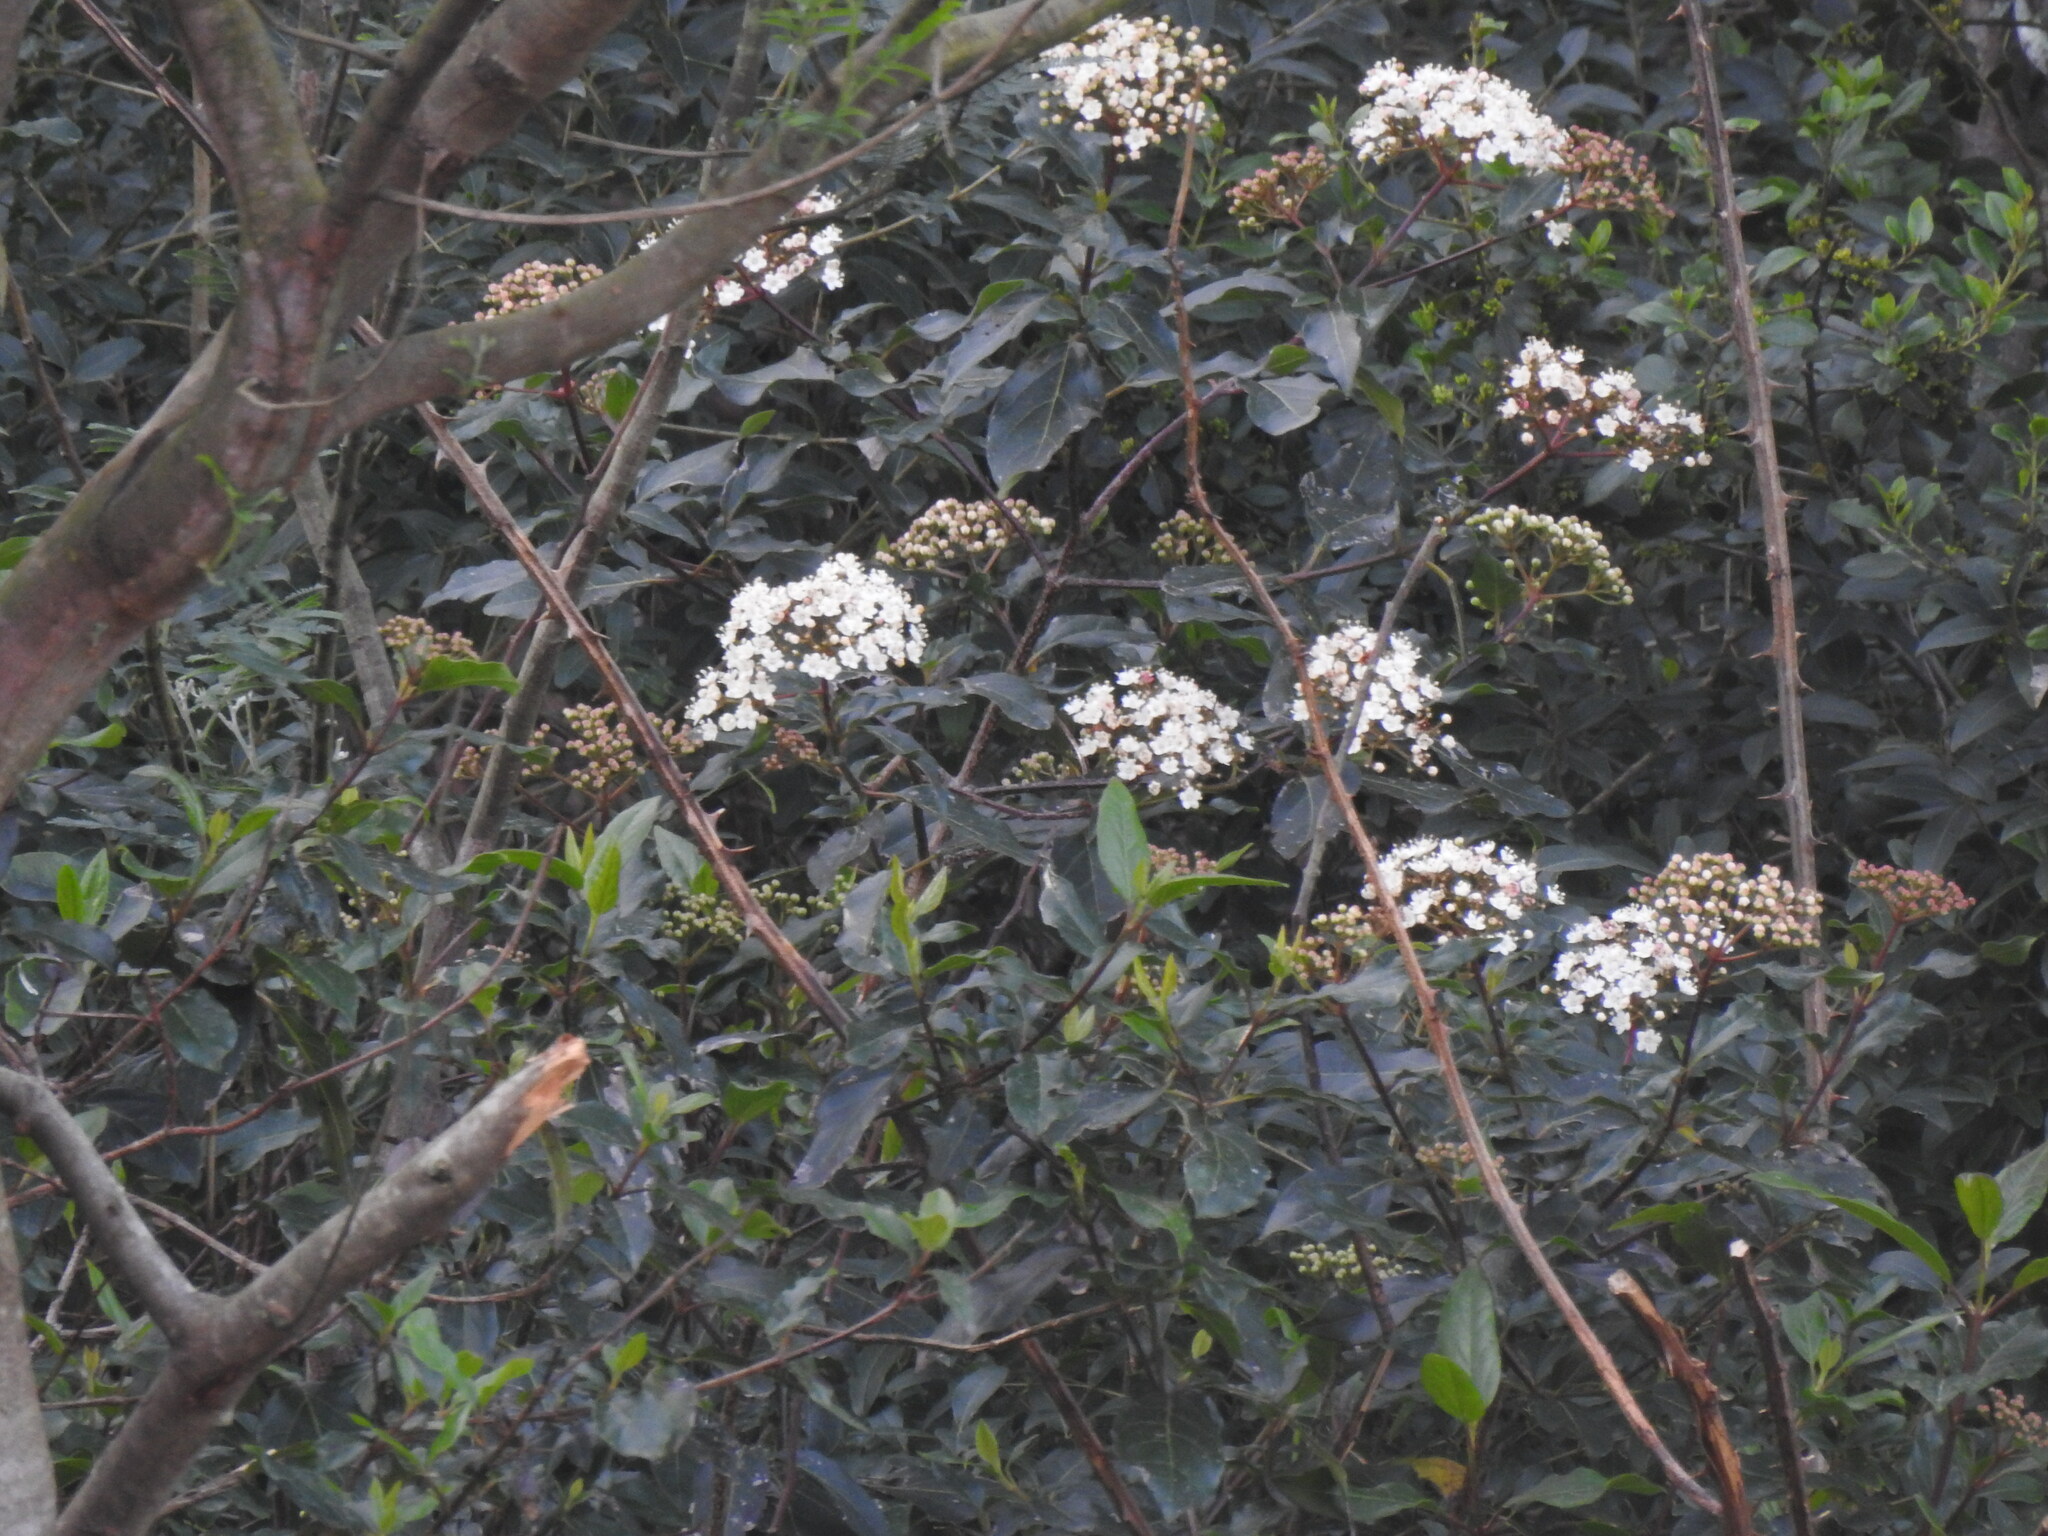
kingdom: Plantae
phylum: Tracheophyta
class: Magnoliopsida
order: Dipsacales
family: Viburnaceae
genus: Viburnum
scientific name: Viburnum tinus
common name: Laurustinus
